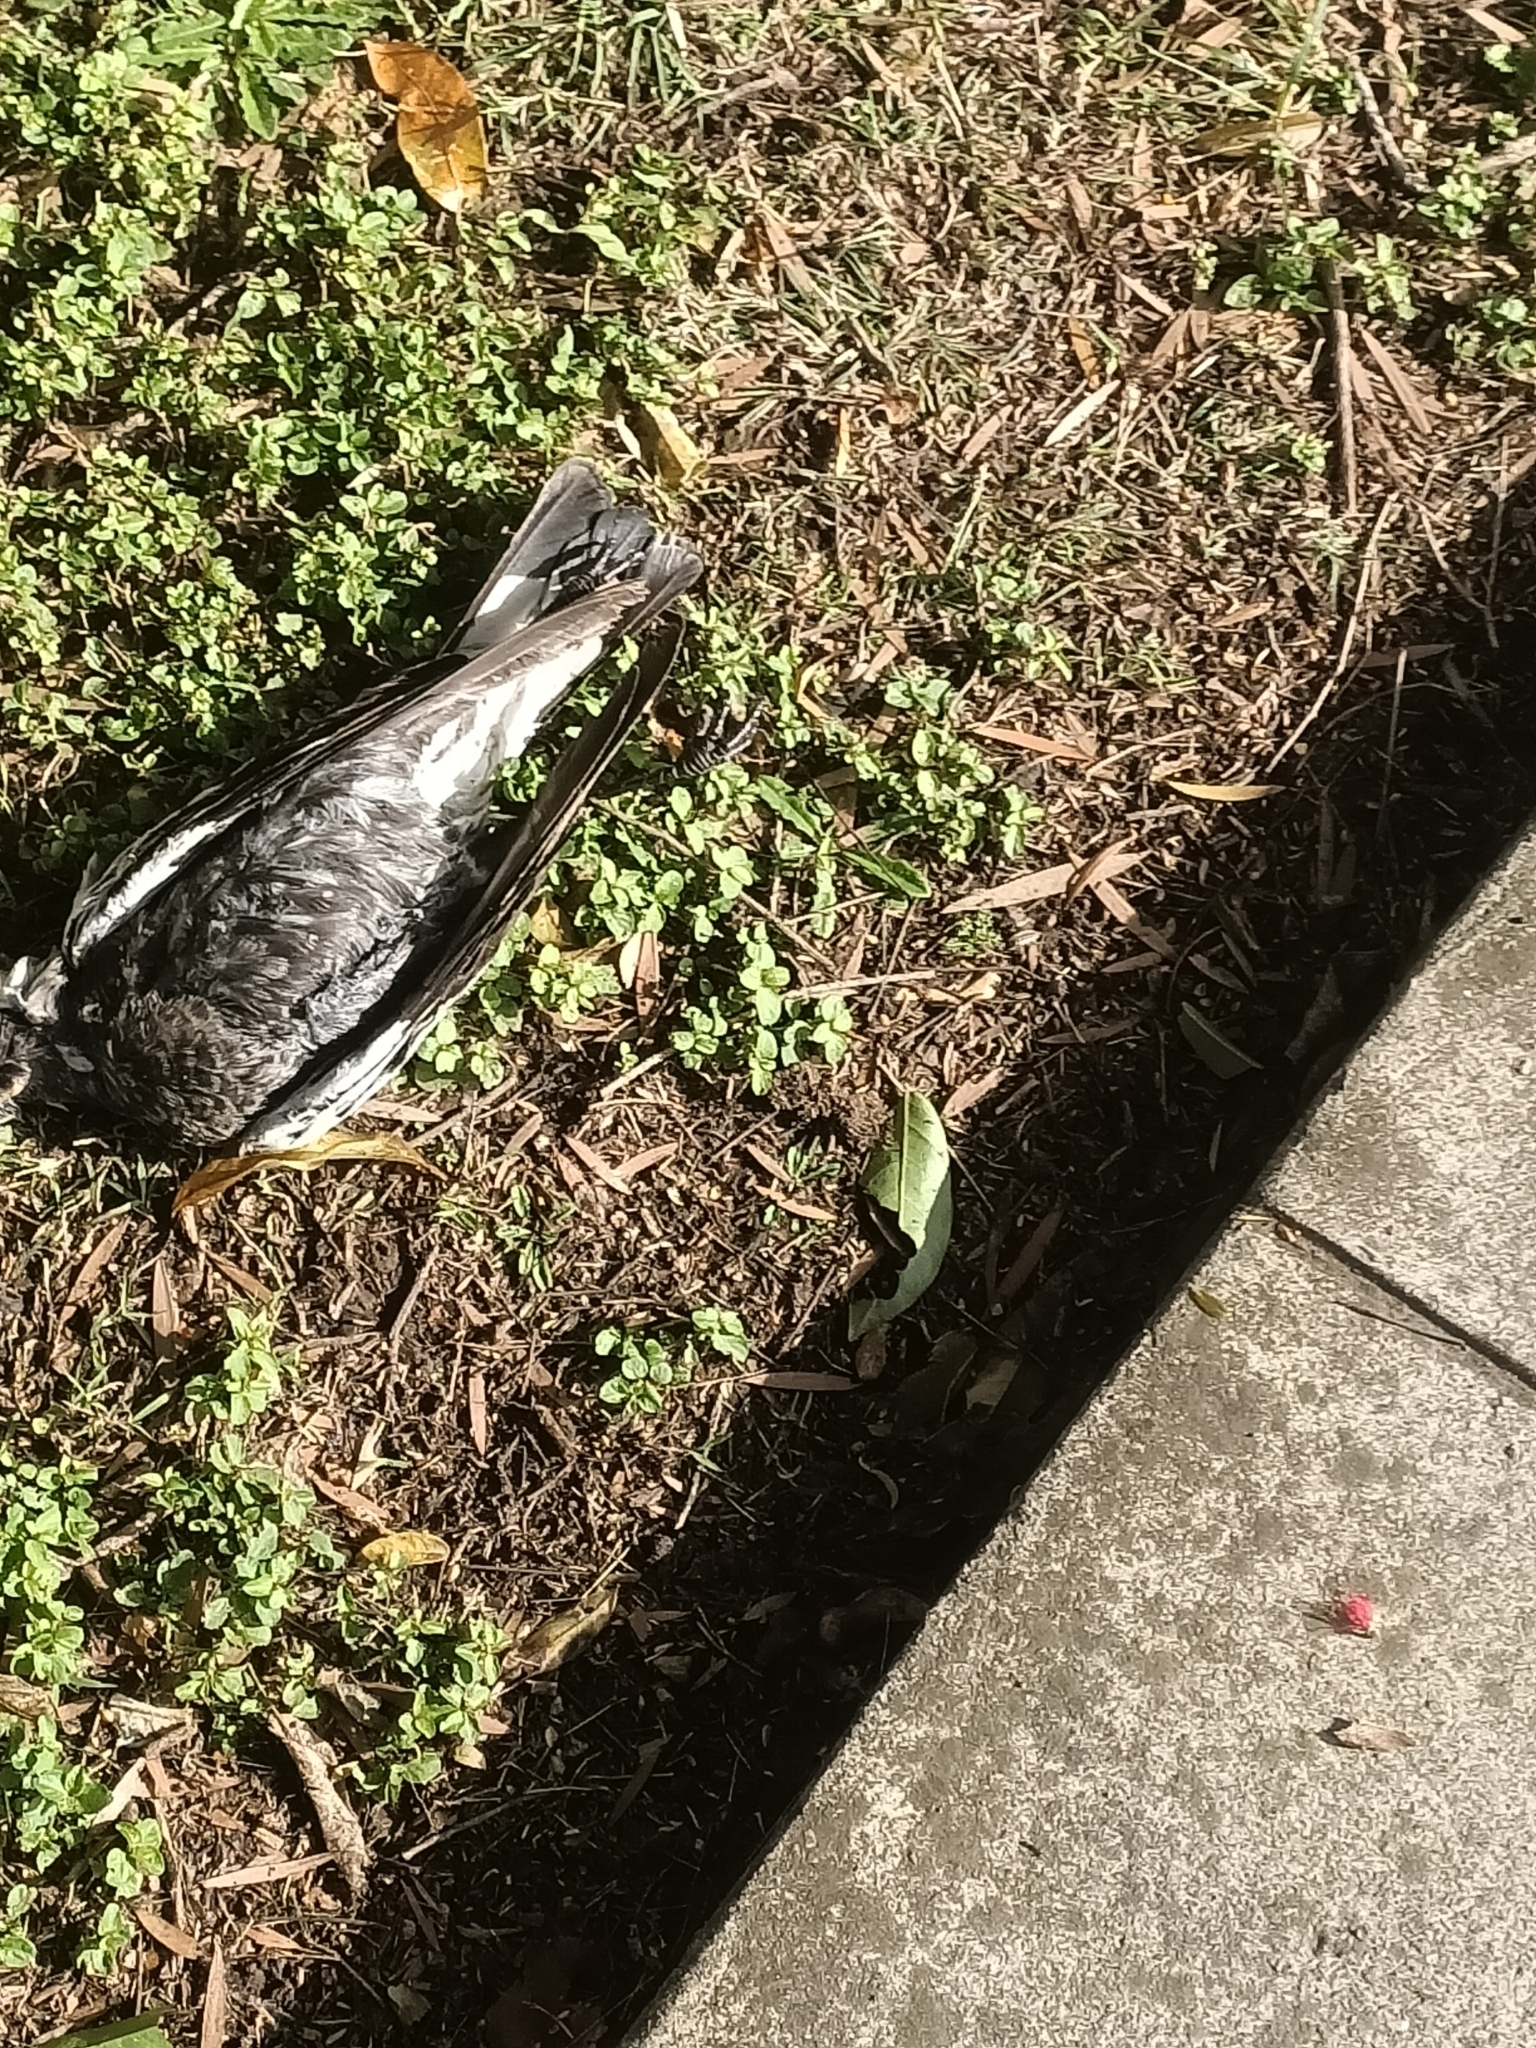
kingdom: Animalia
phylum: Chordata
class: Aves
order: Passeriformes
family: Cracticidae
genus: Gymnorhina
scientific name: Gymnorhina tibicen
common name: Australian magpie
